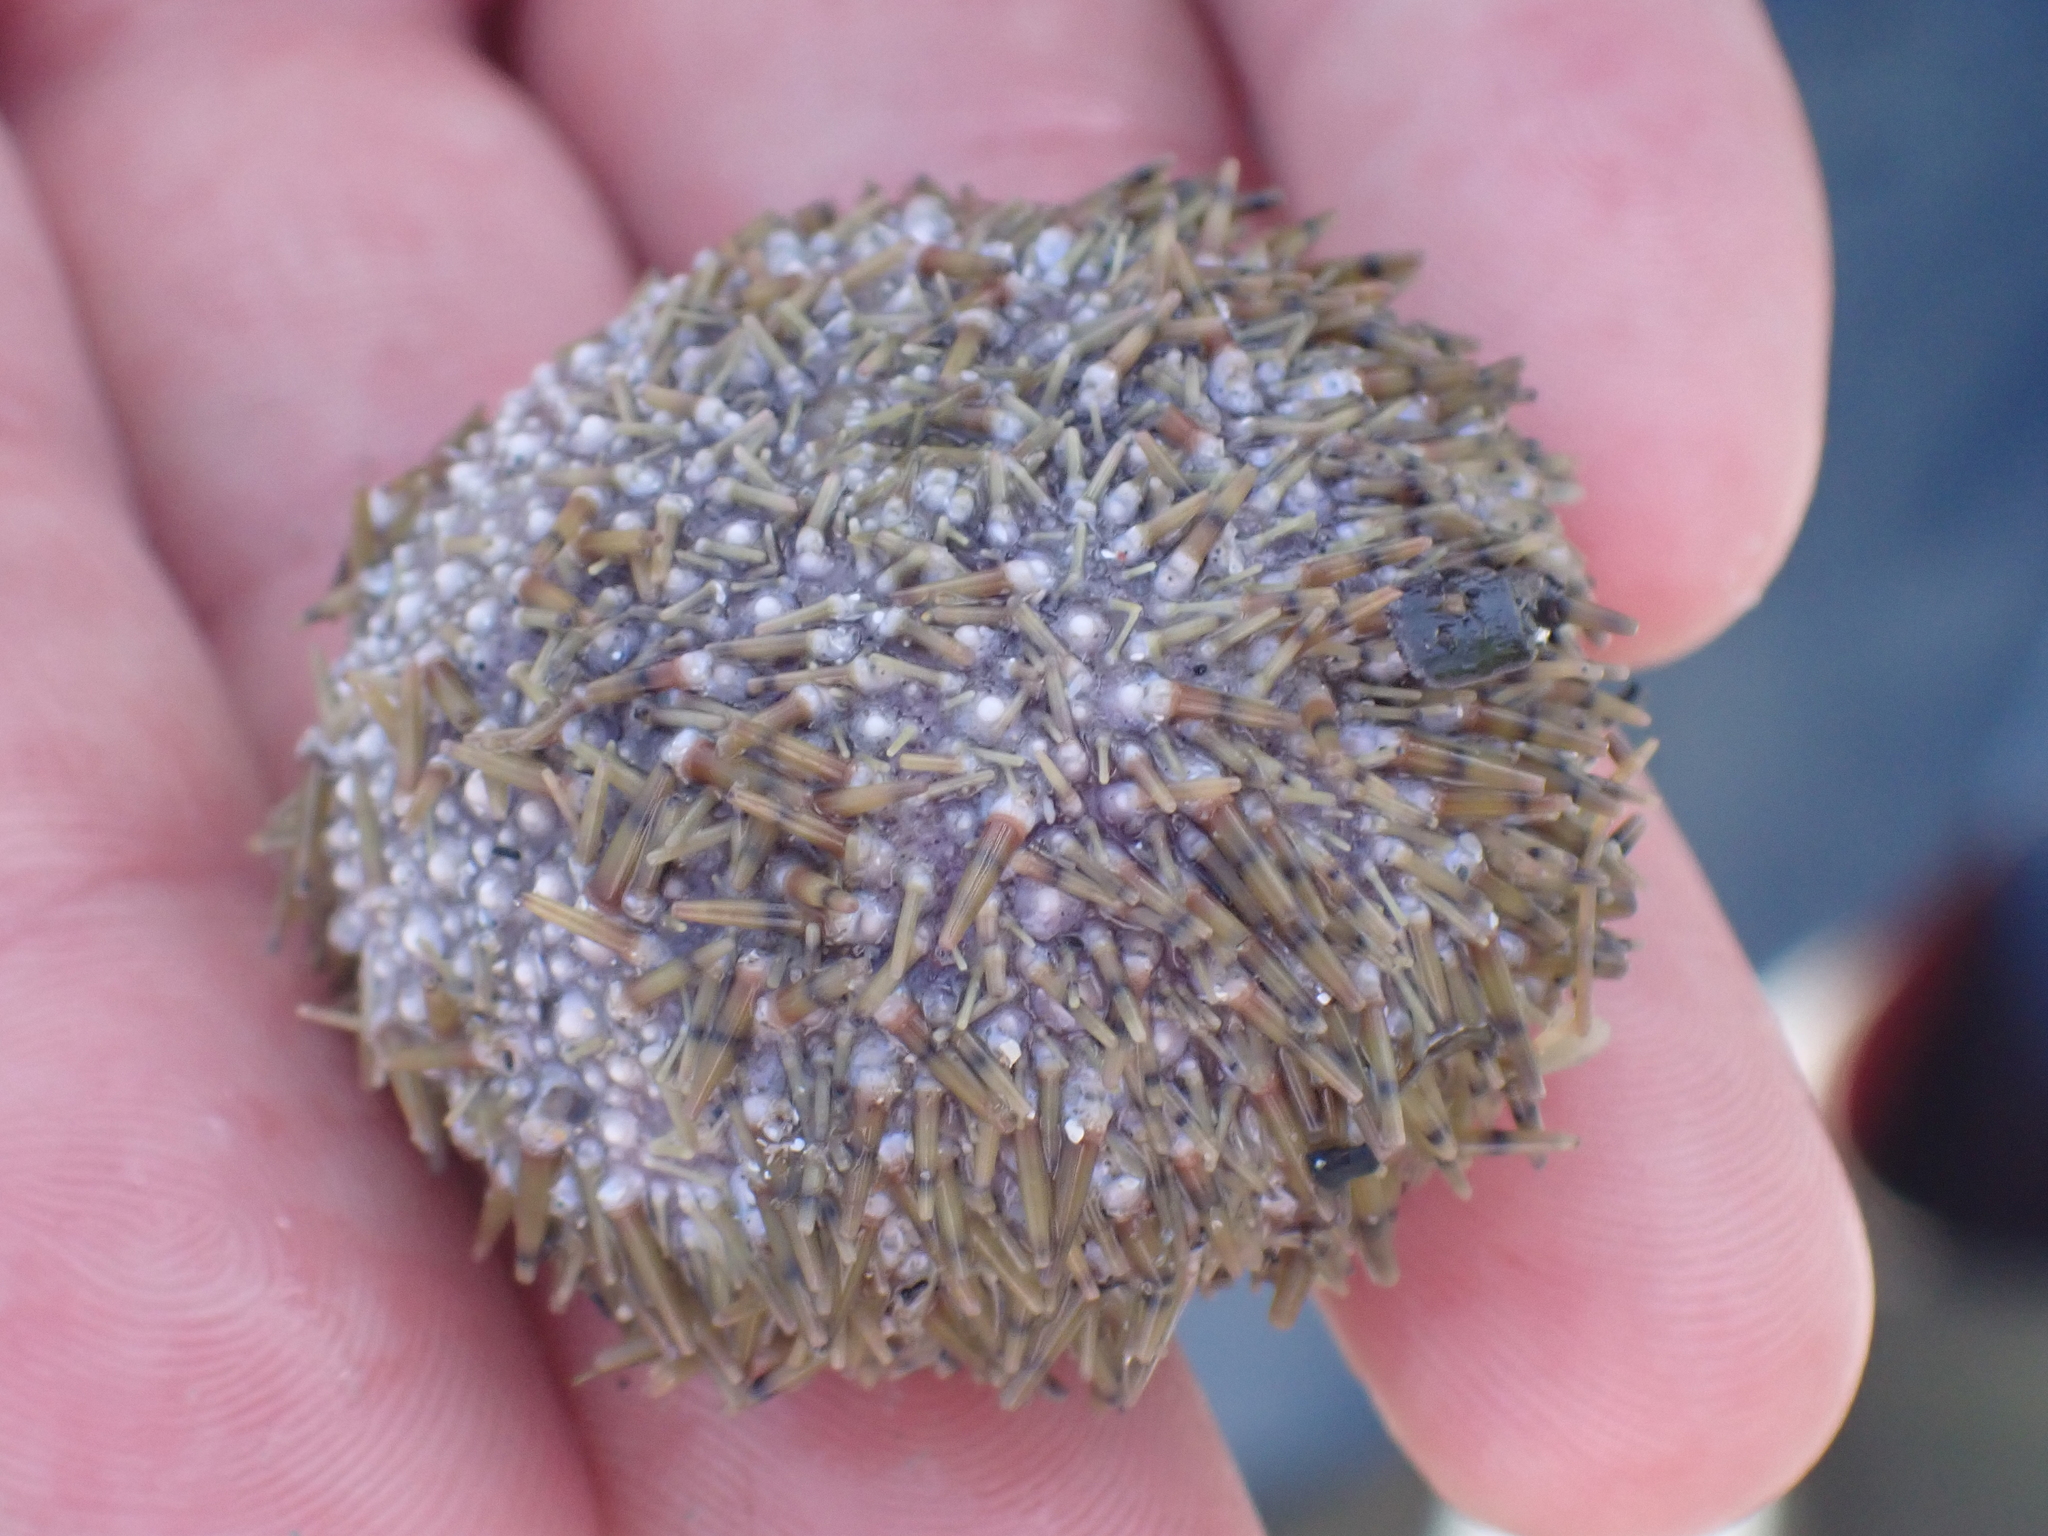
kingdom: Animalia
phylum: Echinodermata
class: Echinoidea
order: Camarodonta
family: Strongylocentrotidae
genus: Strongylocentrotus
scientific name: Strongylocentrotus droebachiensis
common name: Northern sea urchin
